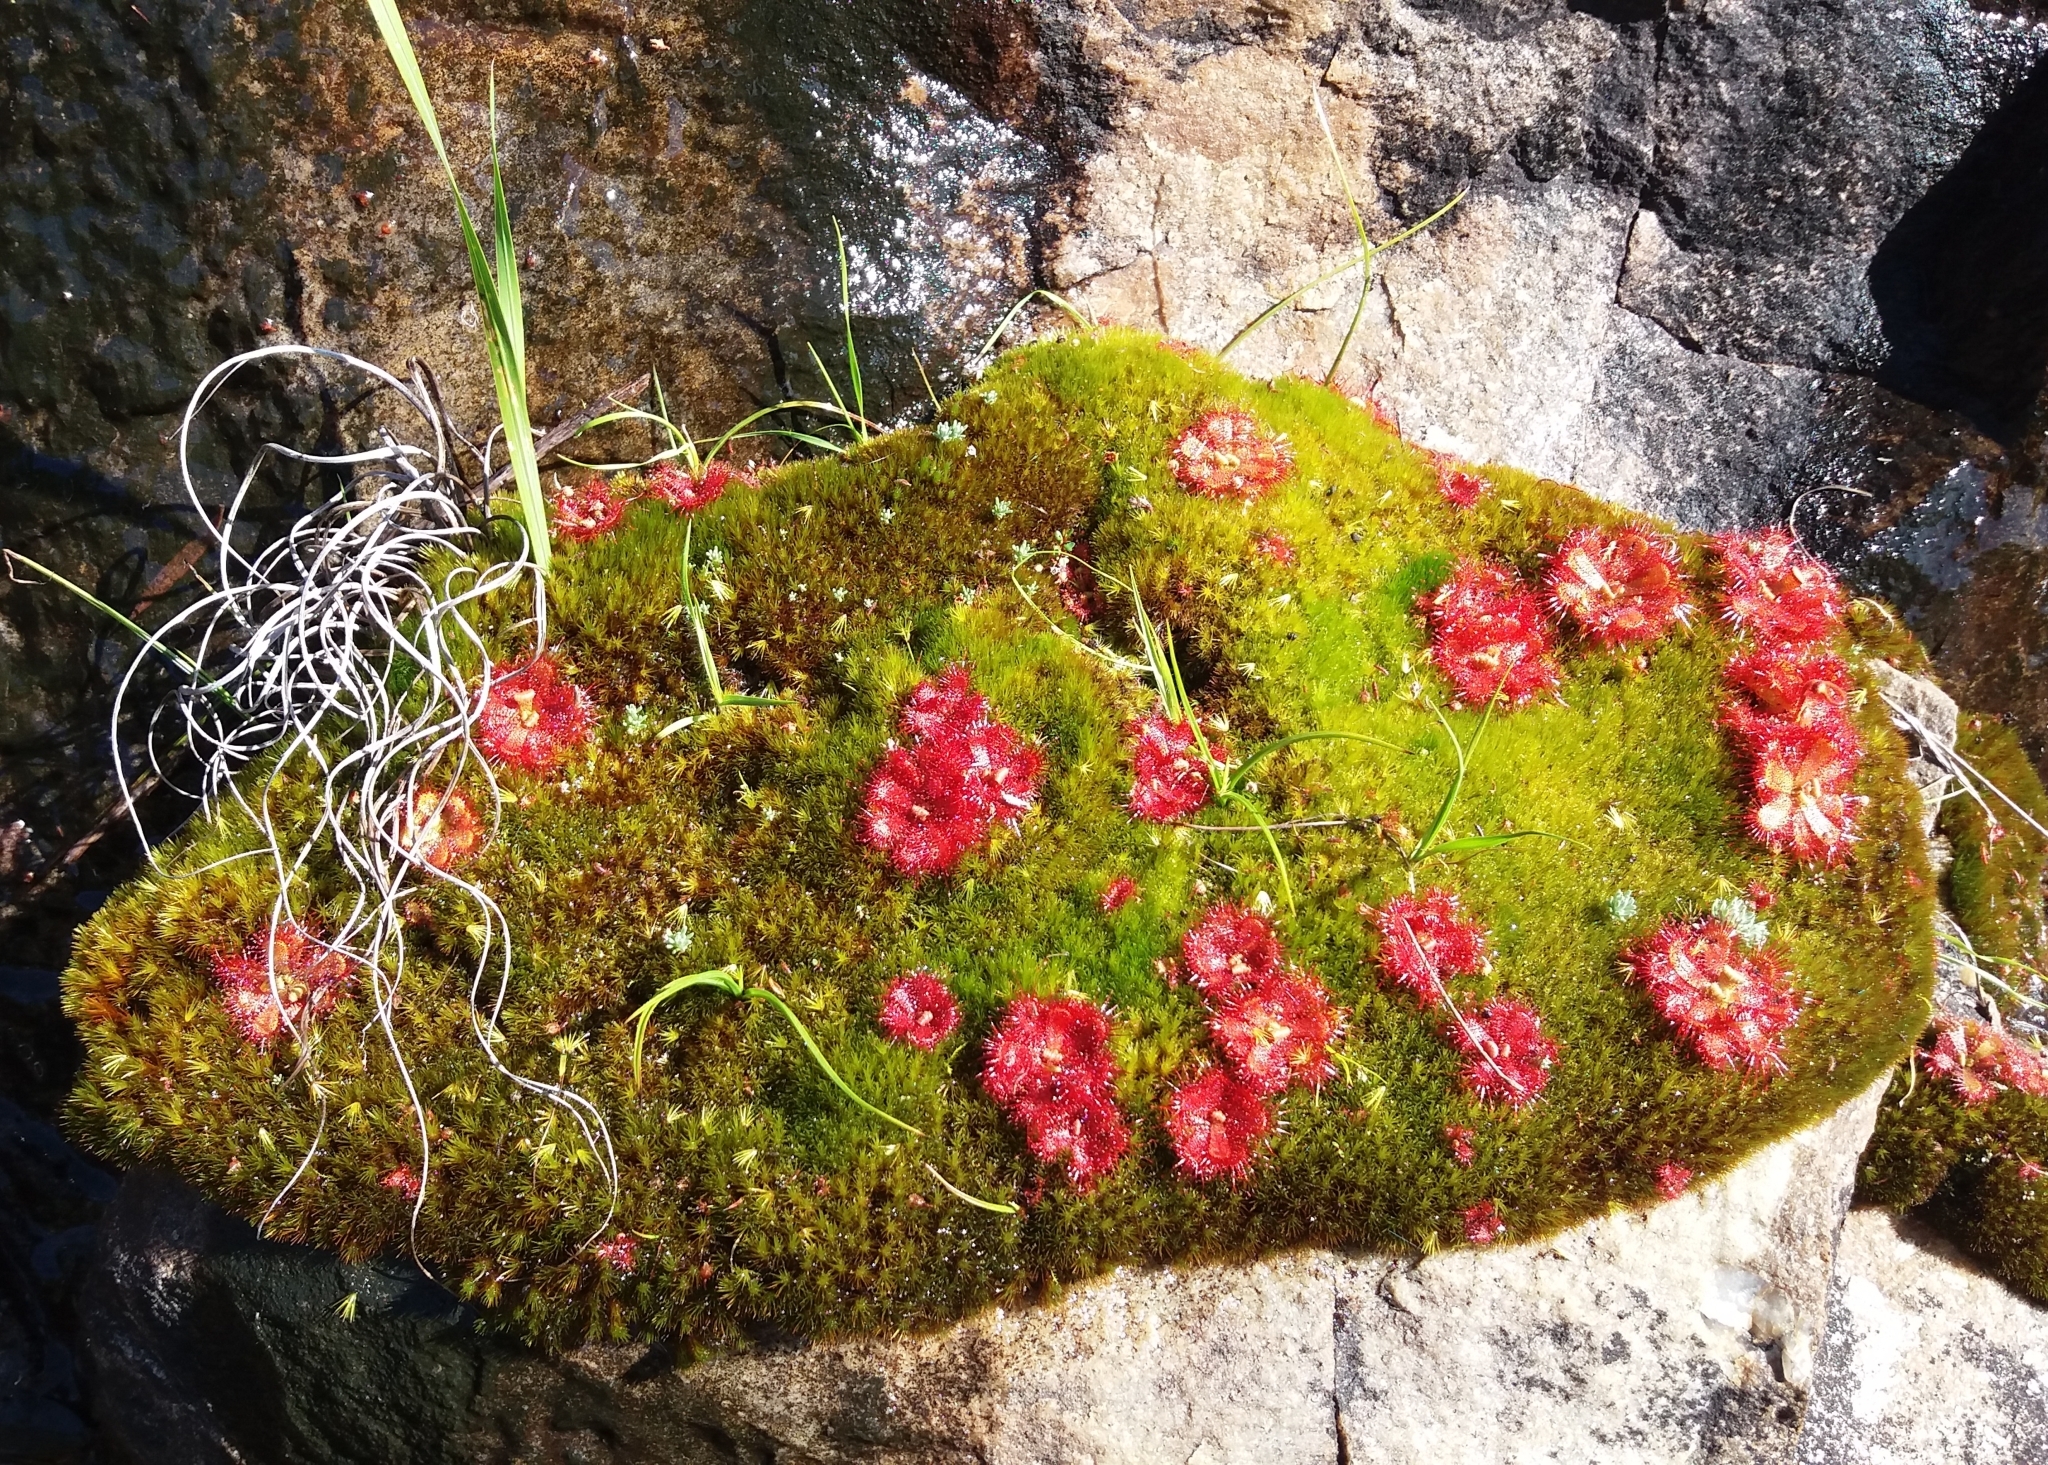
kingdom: Plantae
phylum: Tracheophyta
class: Magnoliopsida
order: Caryophyllales
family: Droseraceae
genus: Drosera
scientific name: Drosera trinervia
